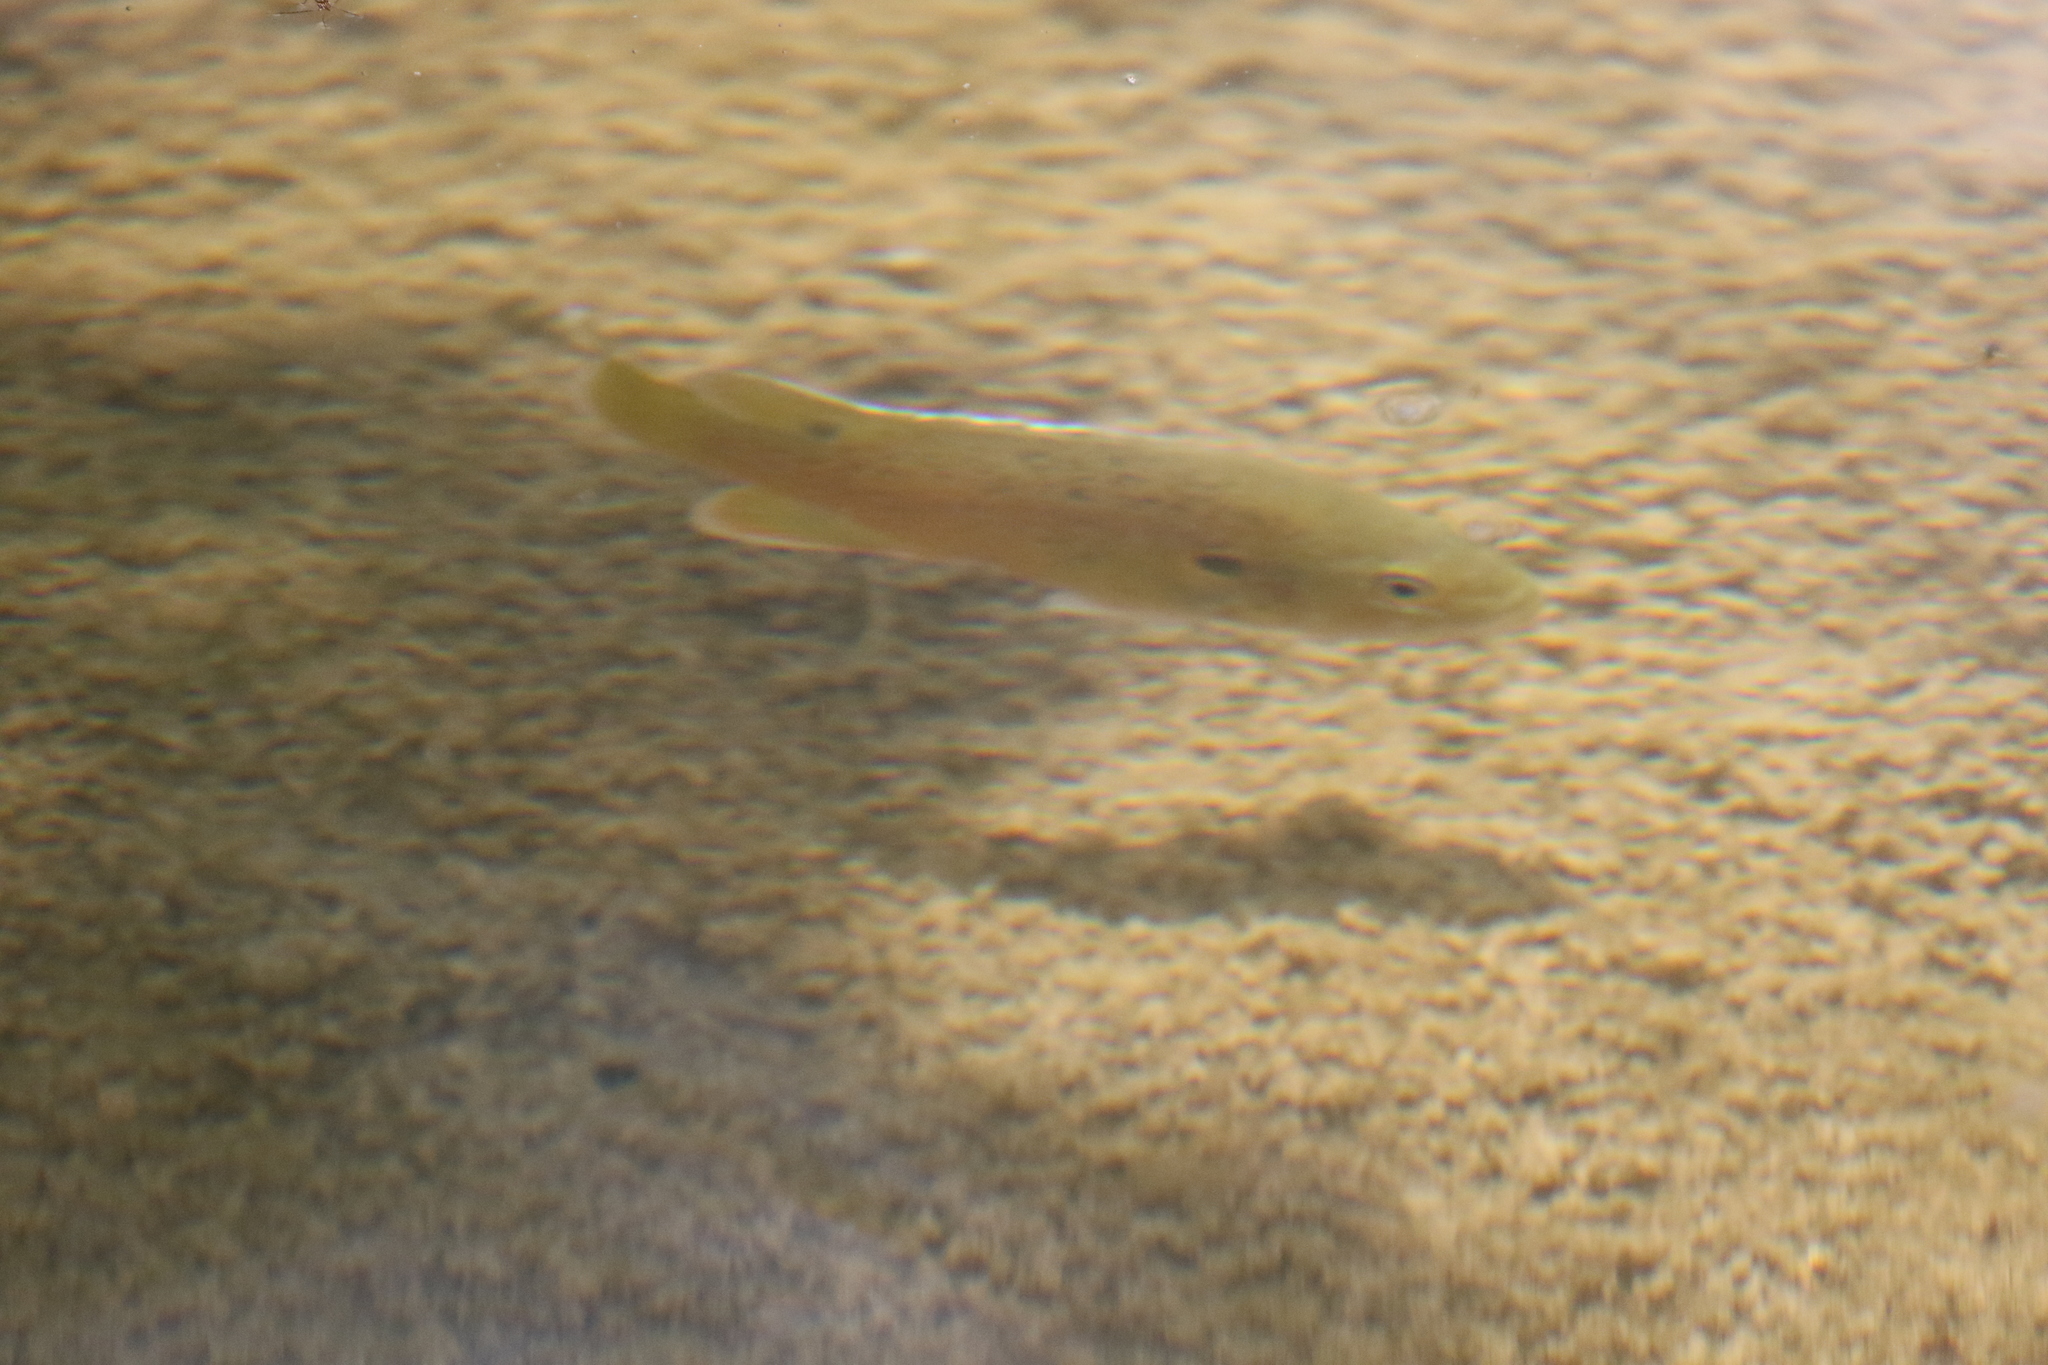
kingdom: Animalia
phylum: Chordata
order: Perciformes
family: Centrarchidae
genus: Lepomis
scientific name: Lepomis cyanellus
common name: Green sunfish
